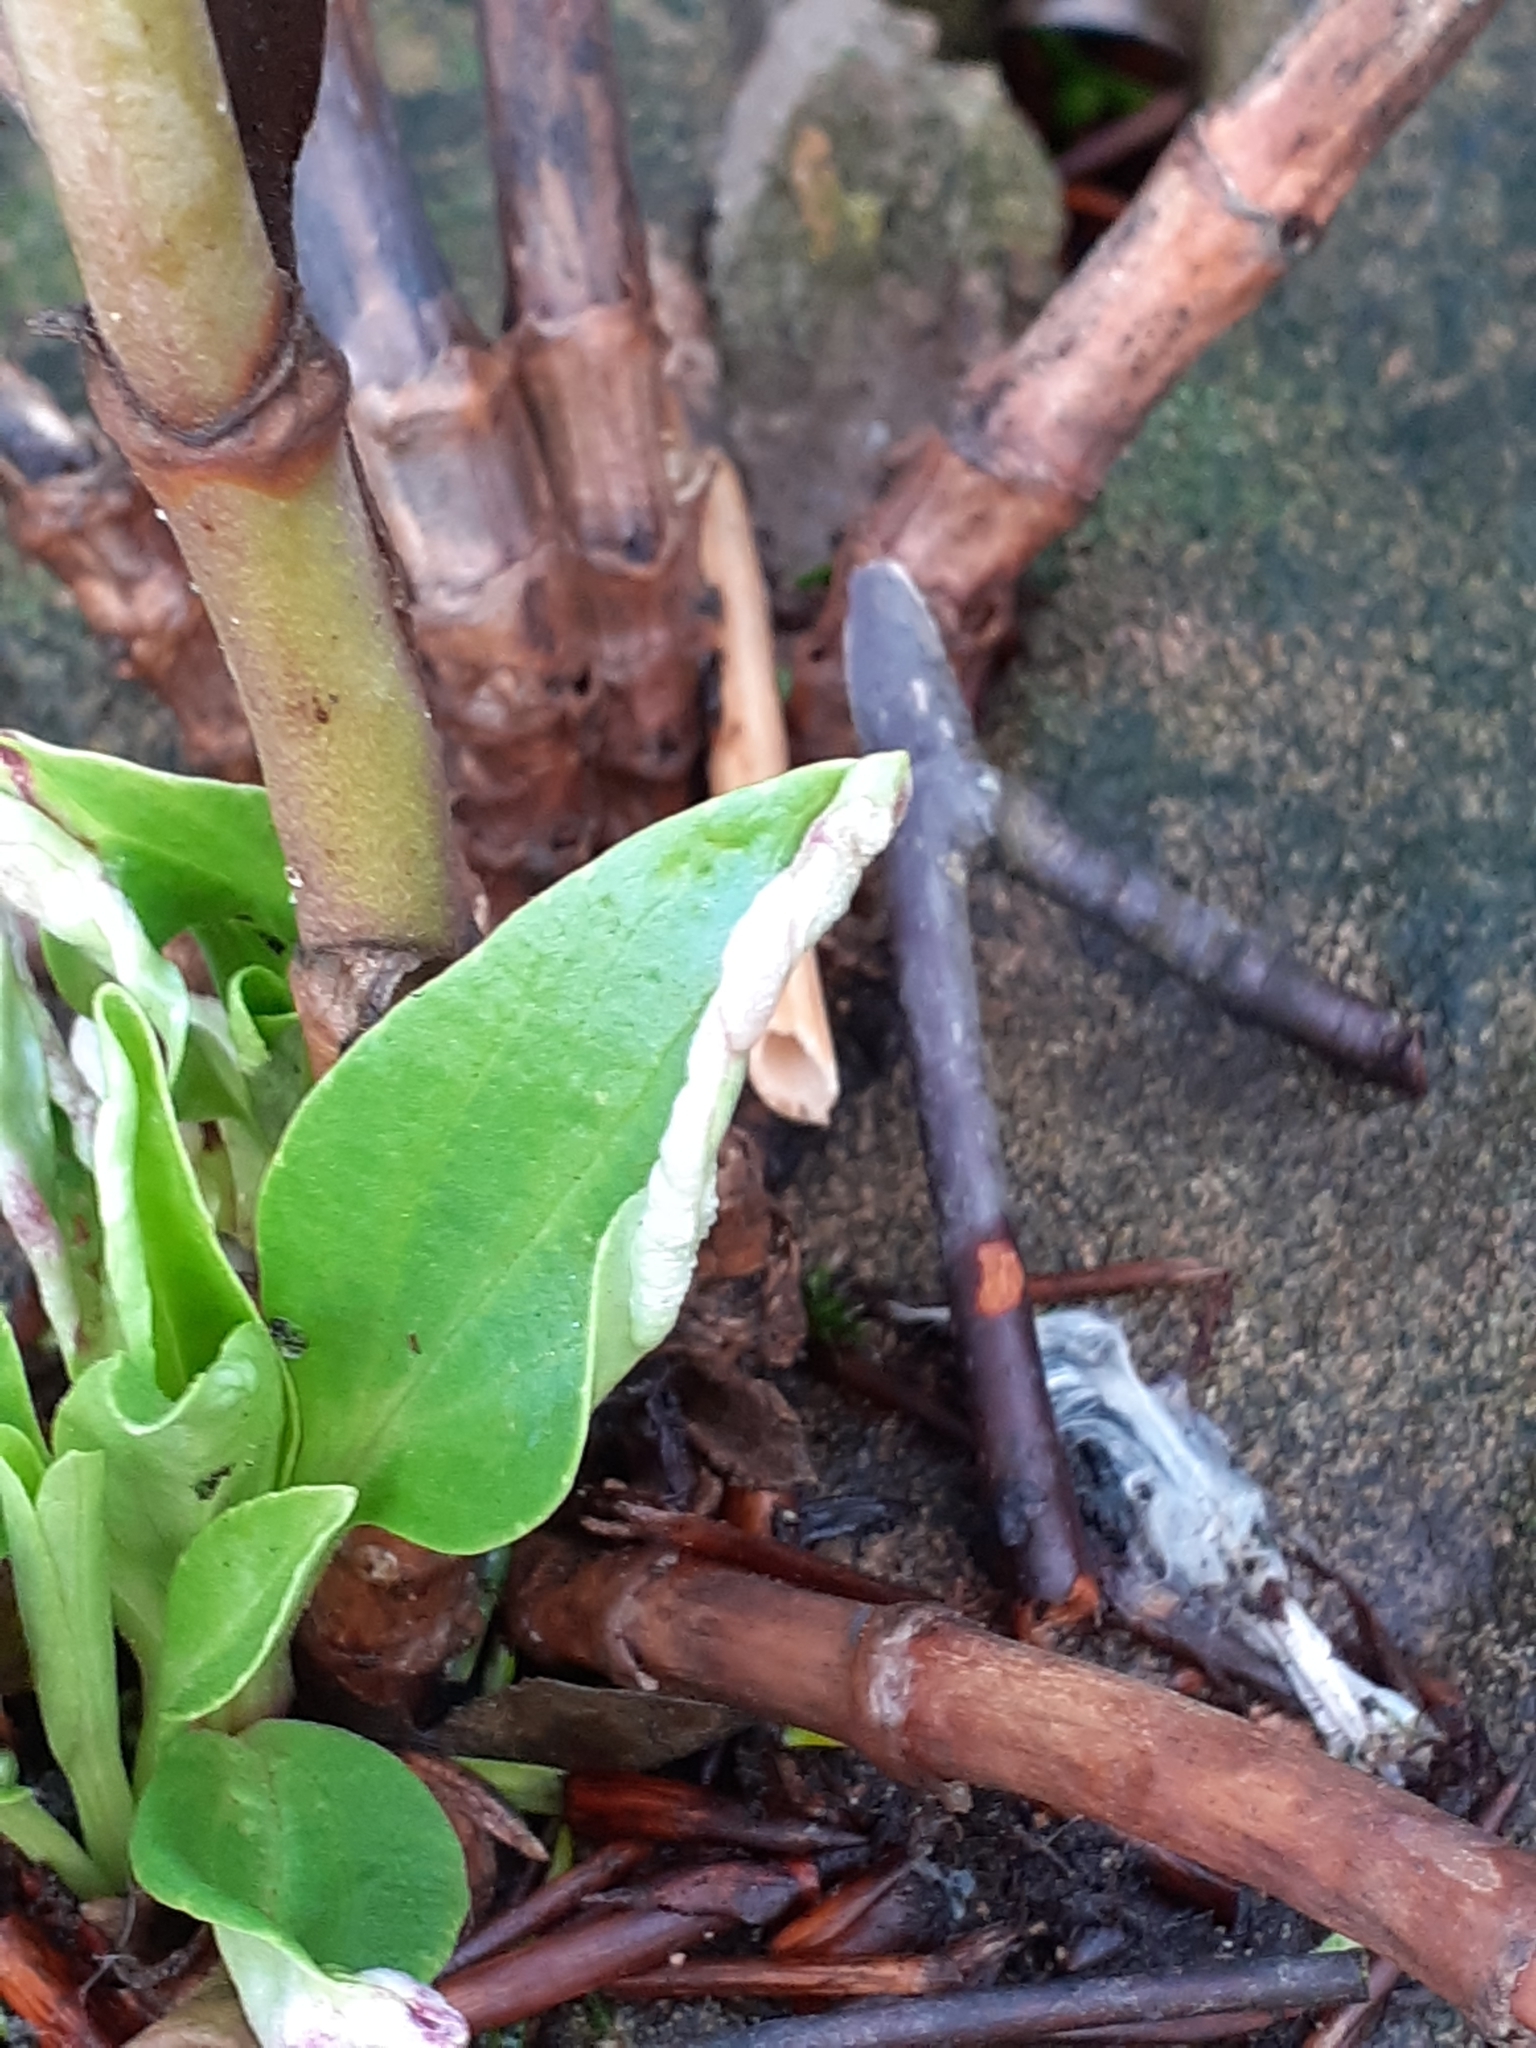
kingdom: Animalia
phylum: Arthropoda
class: Insecta
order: Hemiptera
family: Triozidae
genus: Trioza
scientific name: Trioza centranthi
